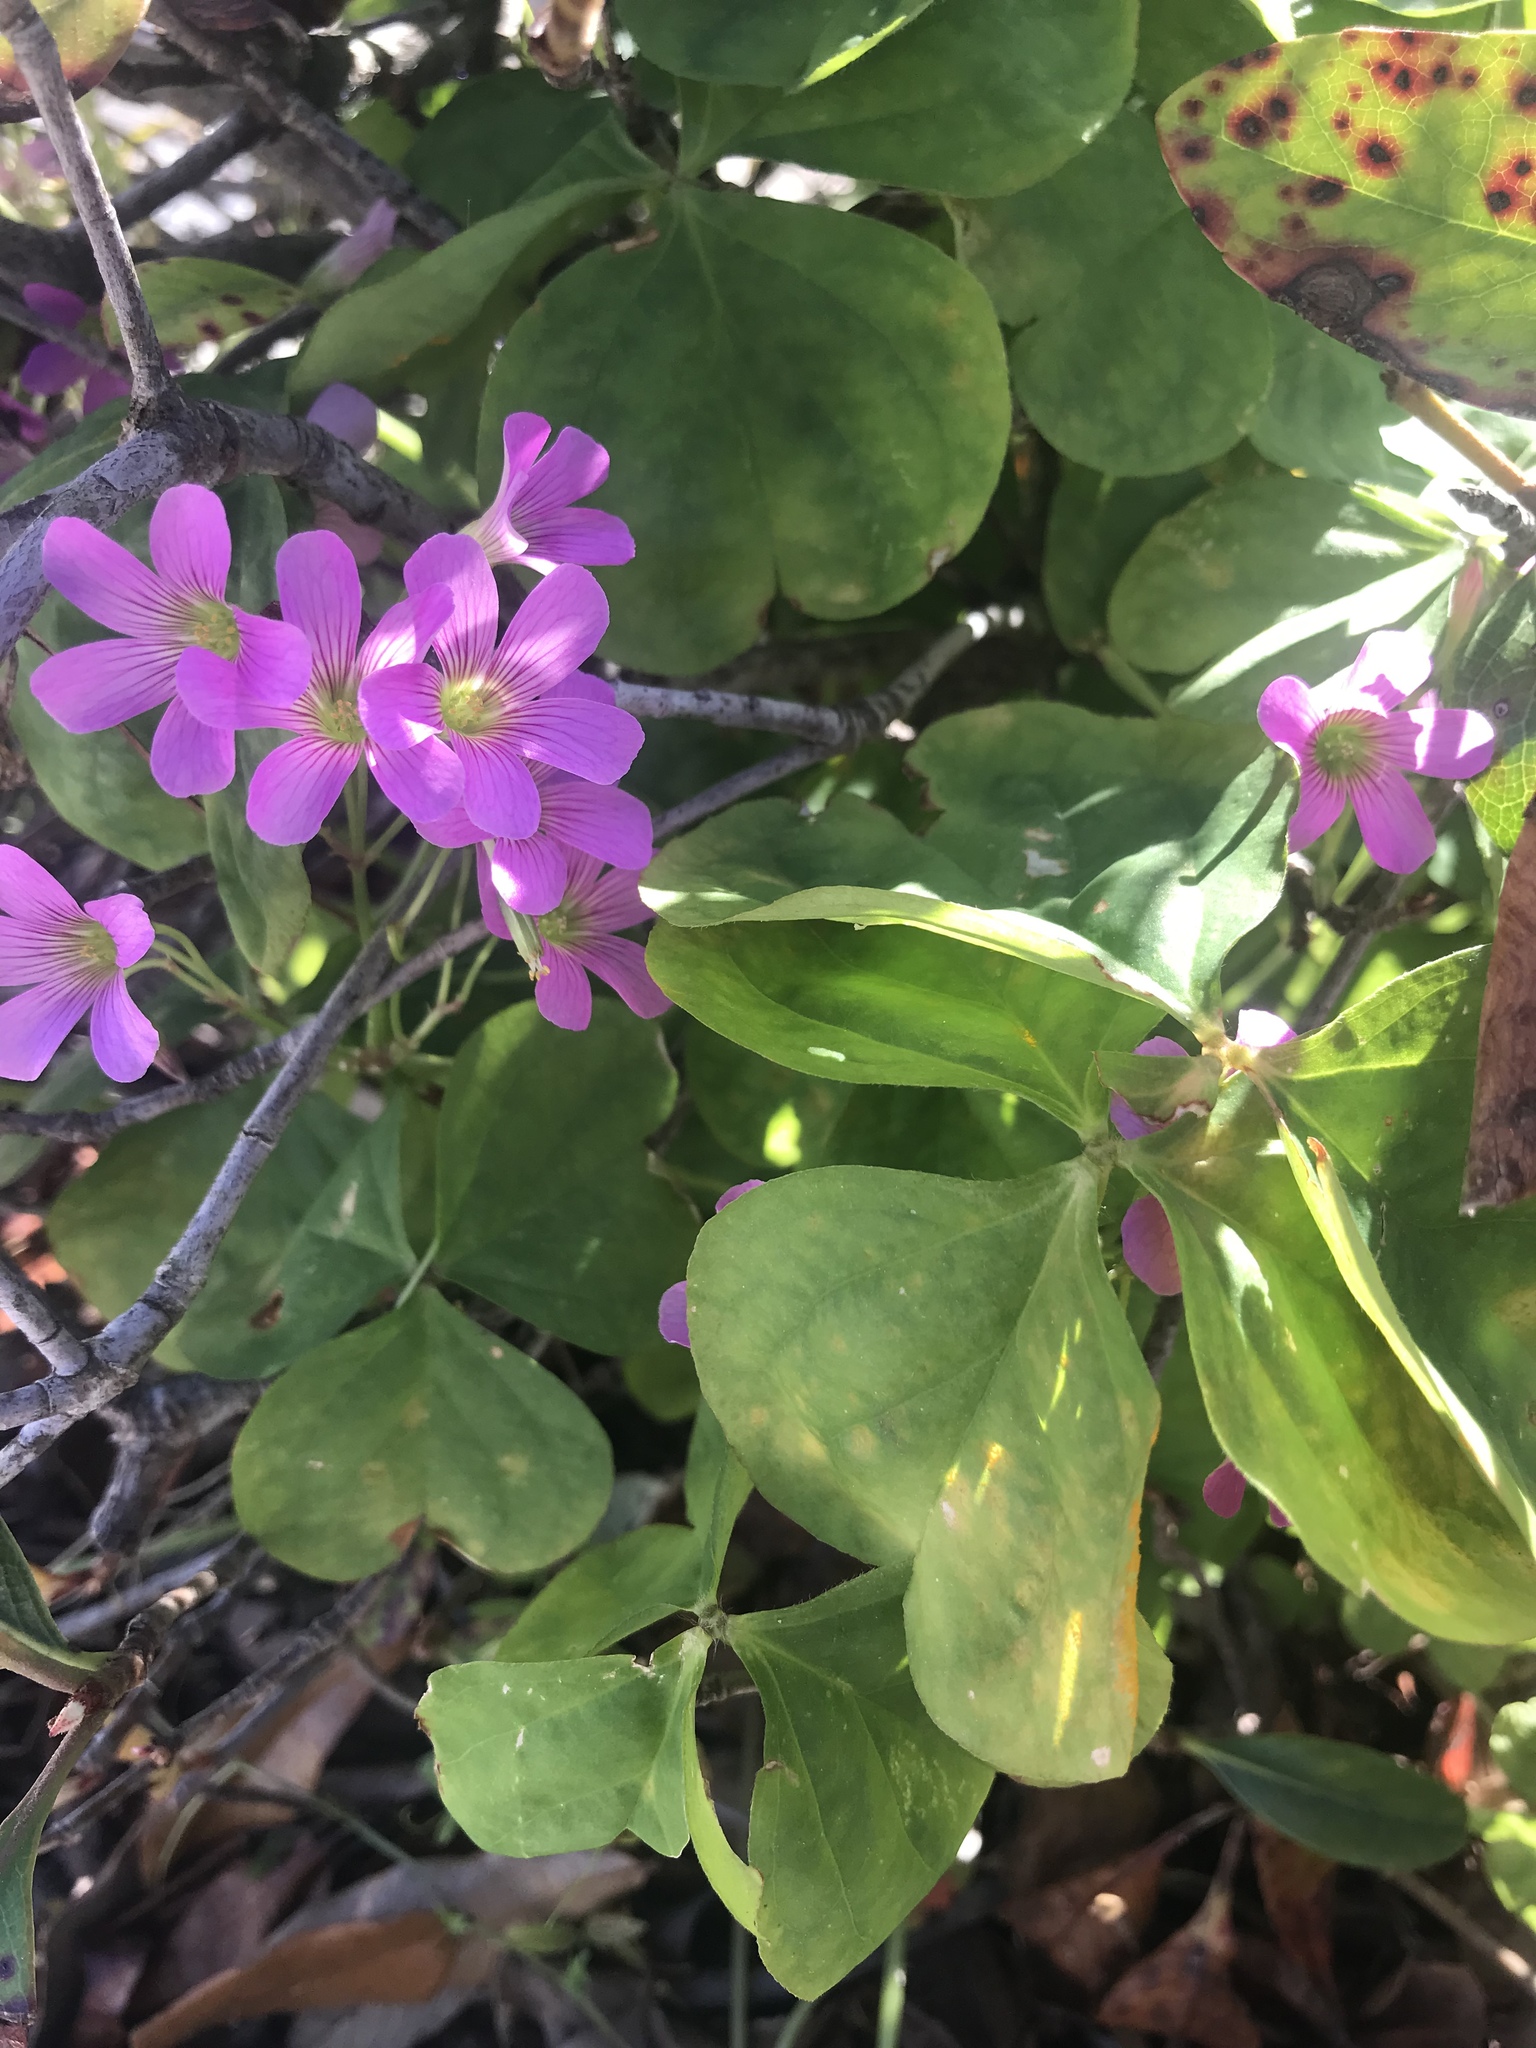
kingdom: Plantae
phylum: Tracheophyta
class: Magnoliopsida
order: Oxalidales
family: Oxalidaceae
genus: Oxalis
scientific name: Oxalis debilis
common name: Large-flowered pink-sorrel
